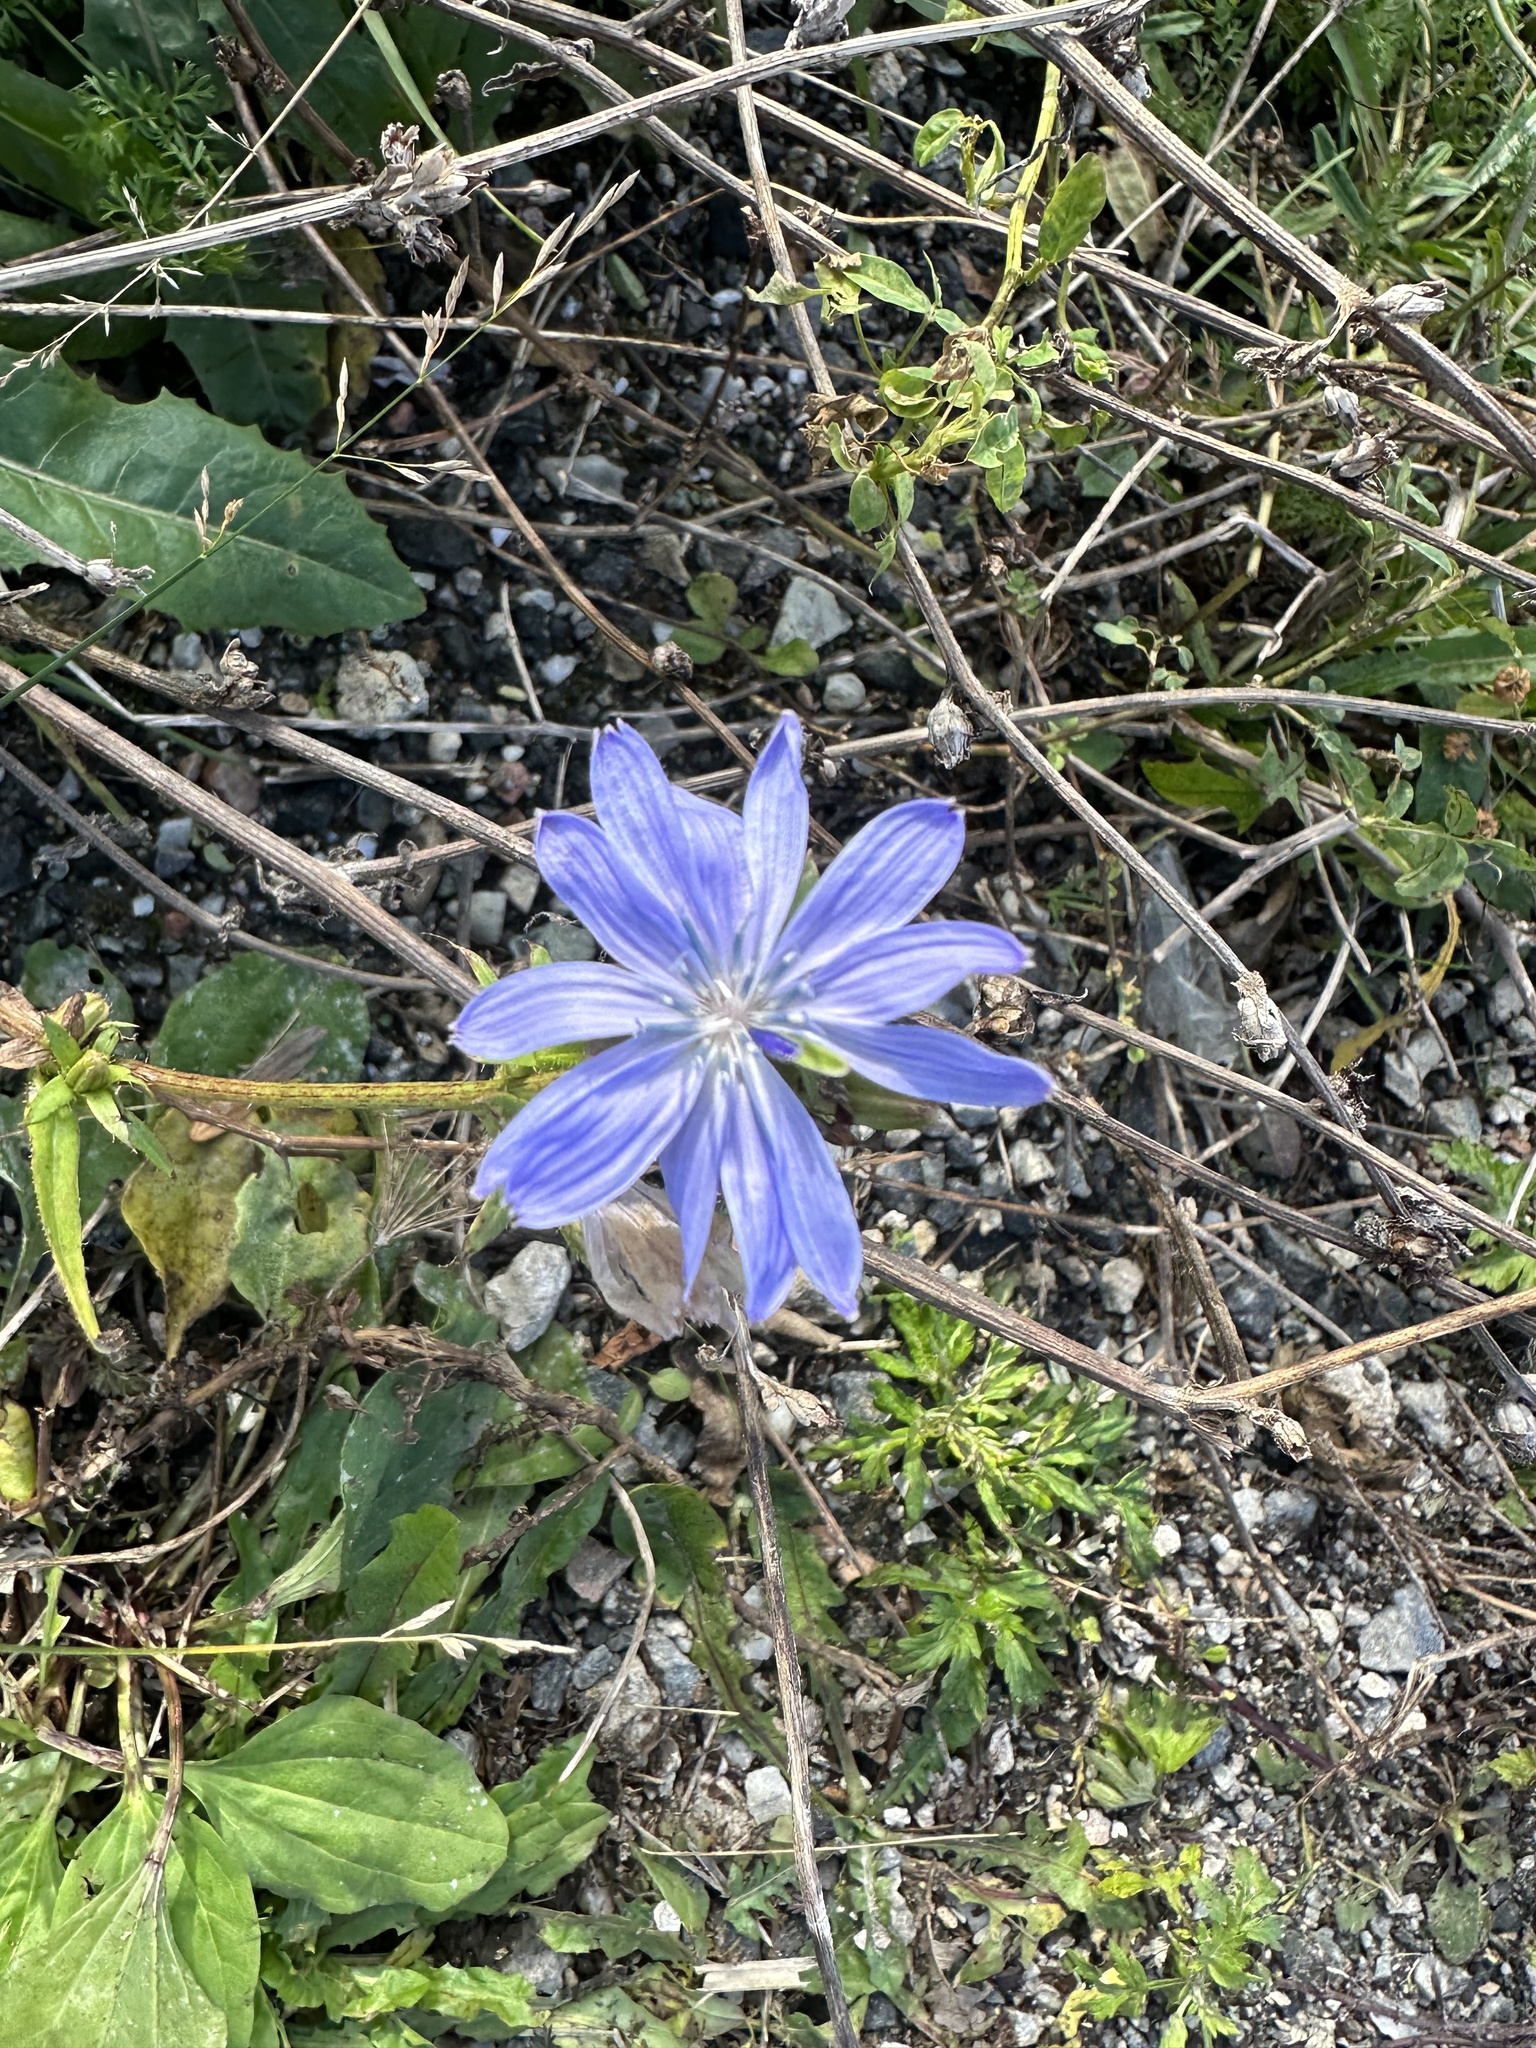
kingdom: Plantae
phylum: Tracheophyta
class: Magnoliopsida
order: Asterales
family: Asteraceae
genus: Cichorium
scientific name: Cichorium intybus
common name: Chicory
